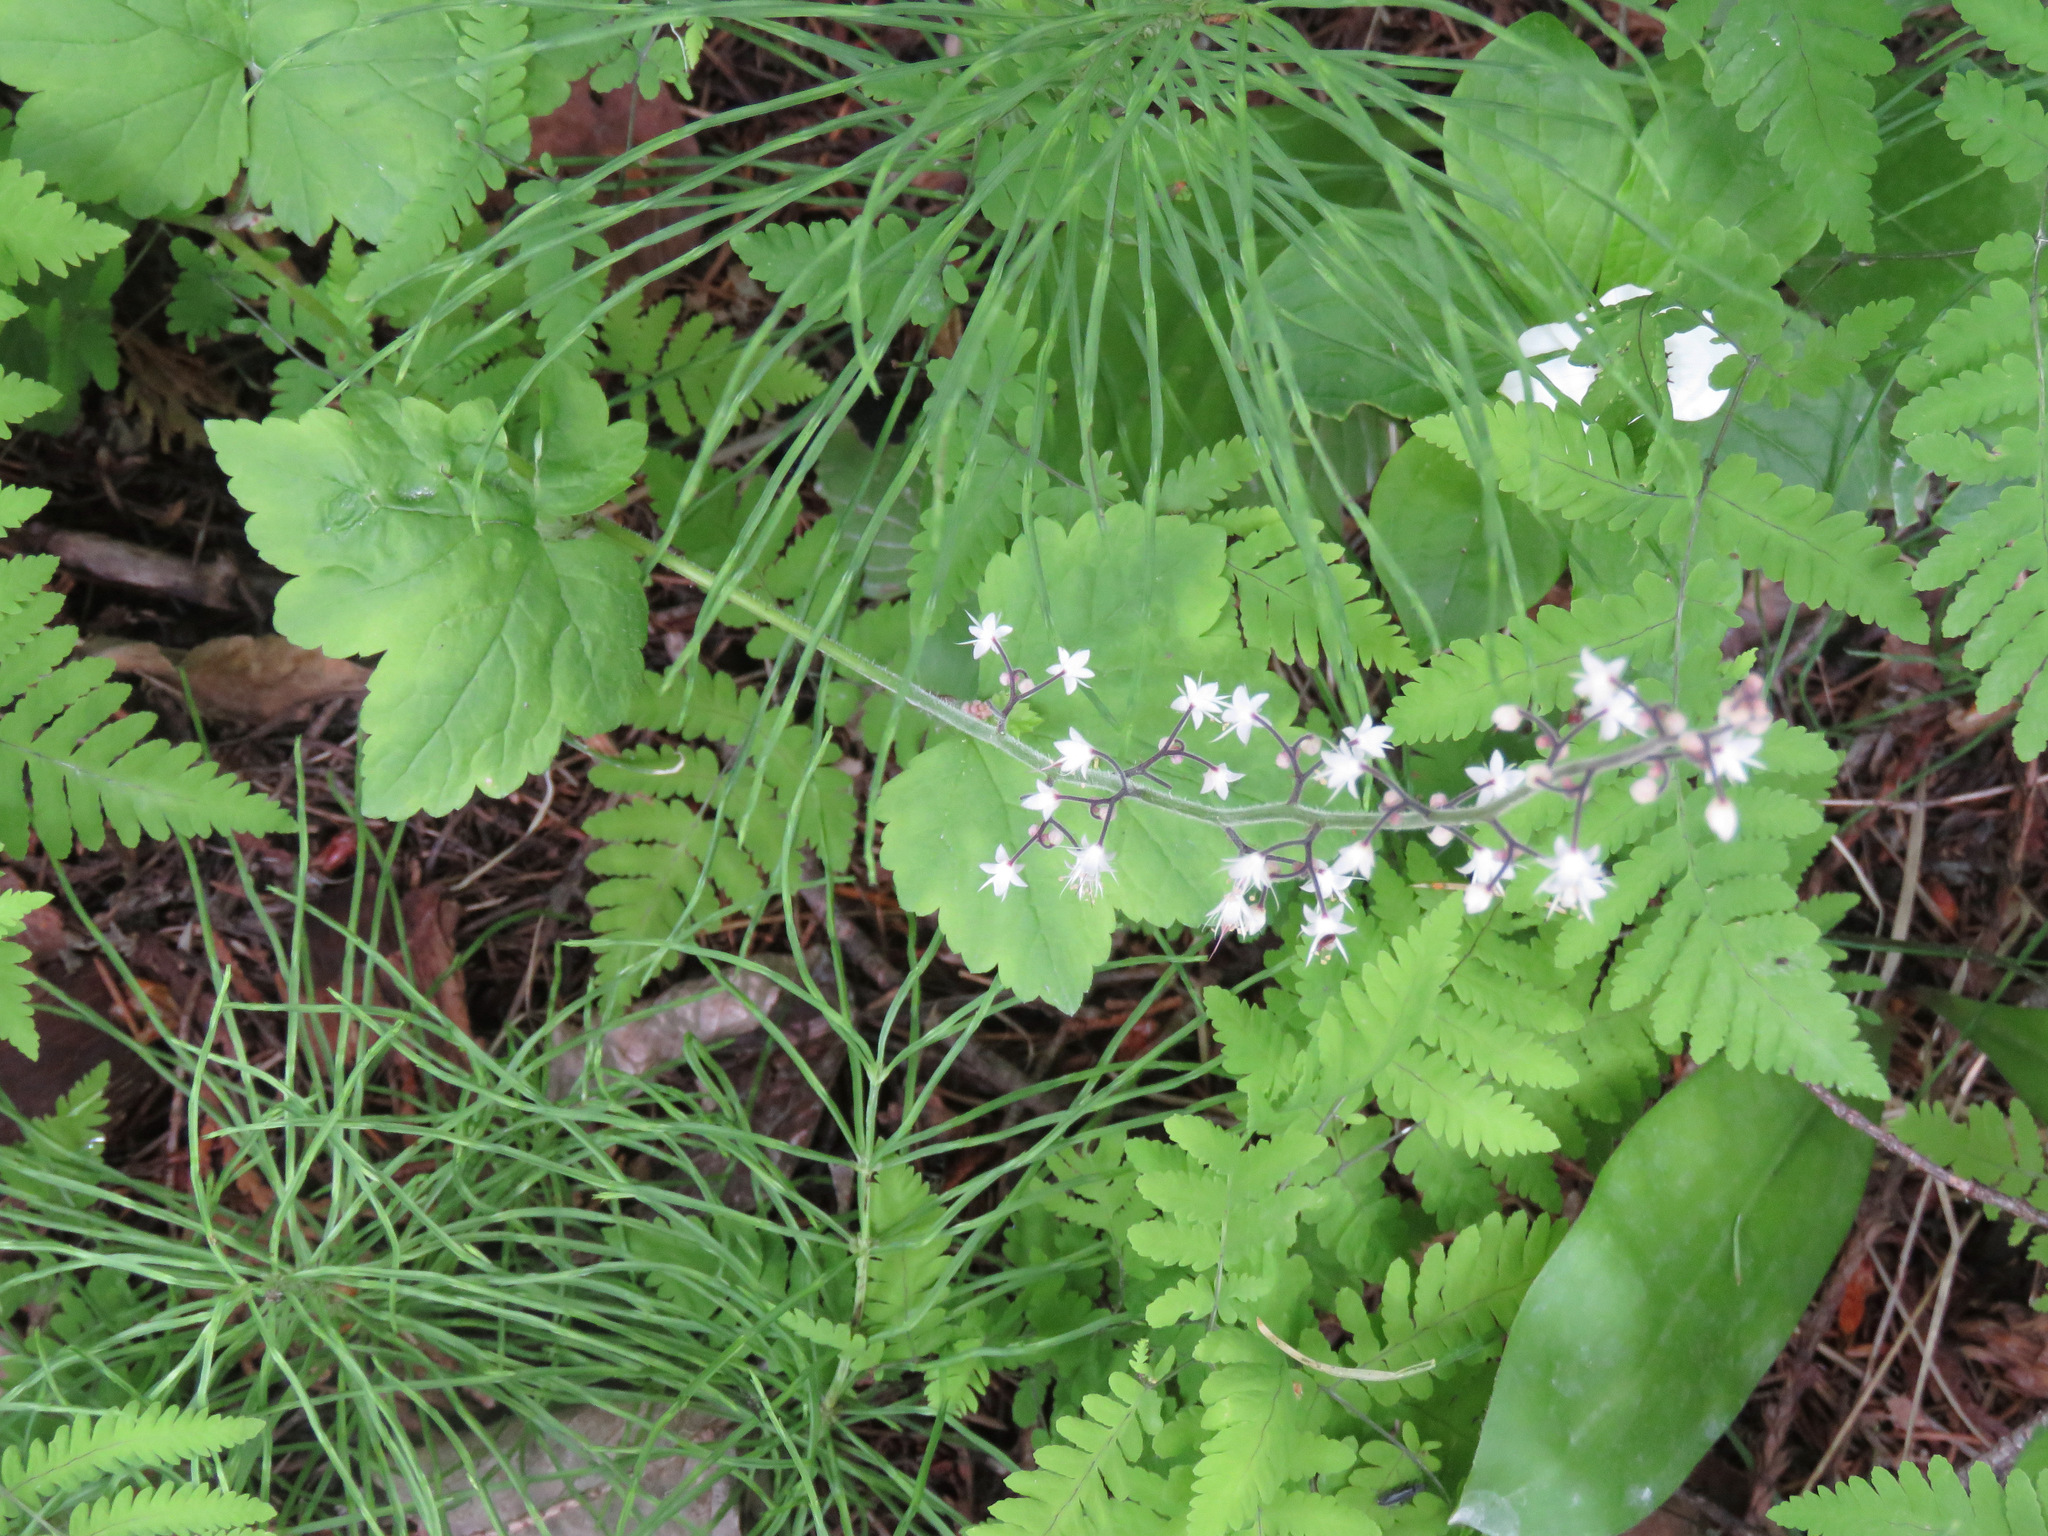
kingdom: Plantae
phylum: Tracheophyta
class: Magnoliopsida
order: Saxifragales
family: Saxifragaceae
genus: Tiarella
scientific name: Tiarella trifoliata
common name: Sugar-scoop
